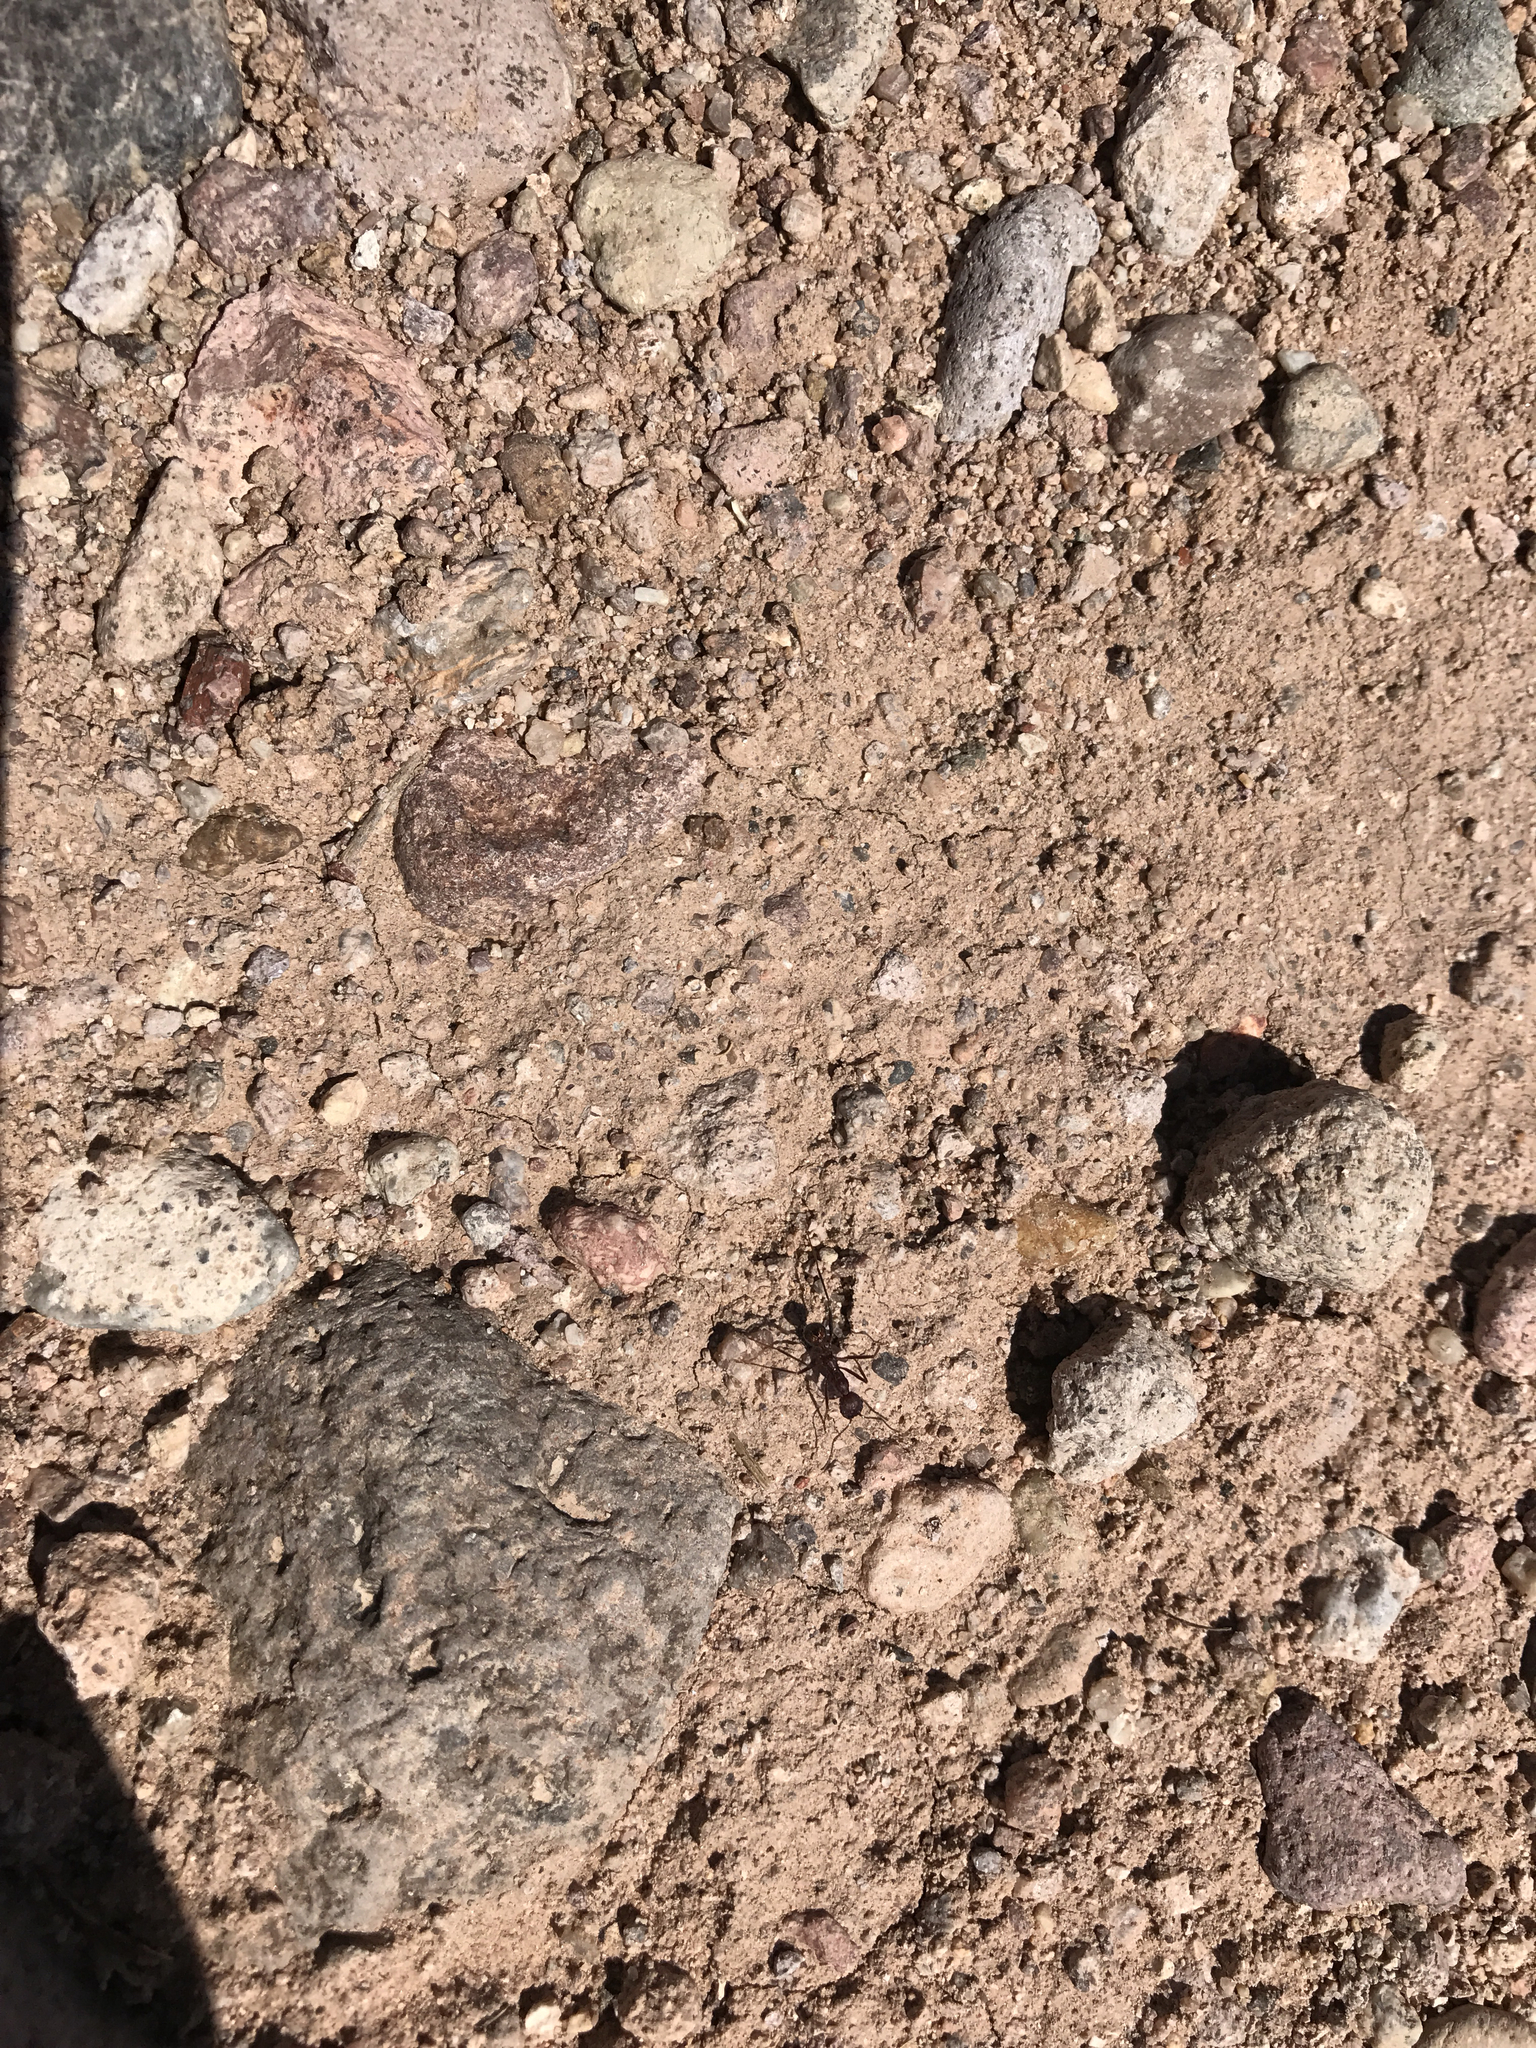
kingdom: Animalia
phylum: Arthropoda
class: Insecta
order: Hymenoptera
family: Formicidae
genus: Novomessor
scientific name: Novomessor albisetosa
